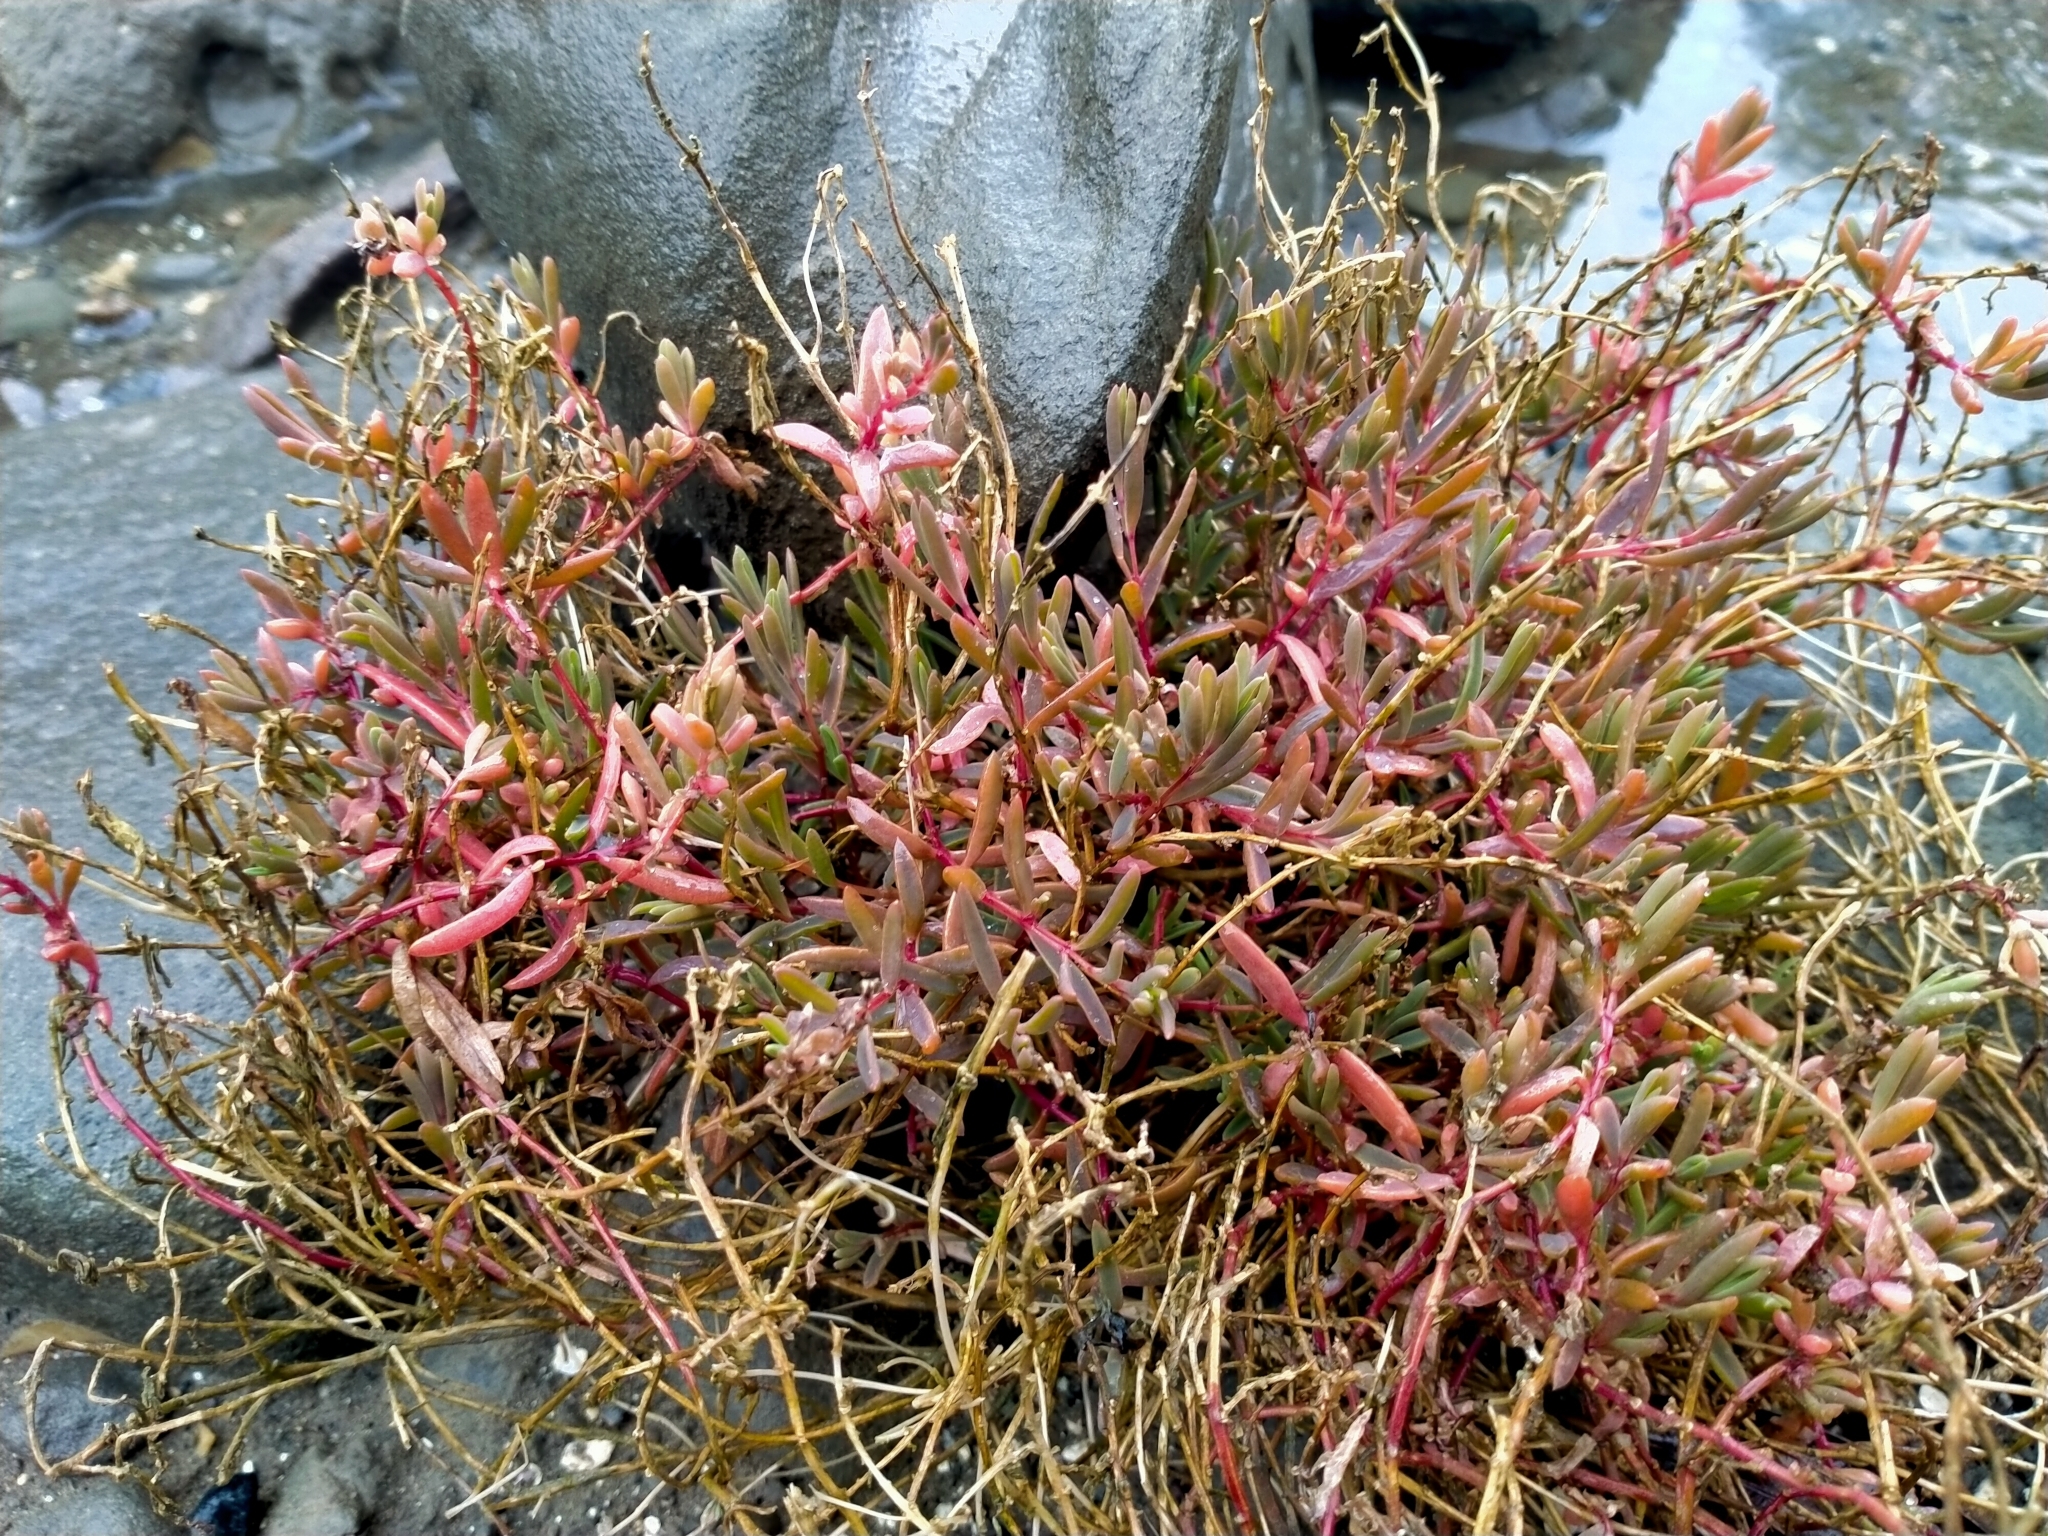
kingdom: Plantae
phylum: Tracheophyta
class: Magnoliopsida
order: Caryophyllales
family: Amaranthaceae
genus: Suaeda
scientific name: Suaeda novae-zelandiae
